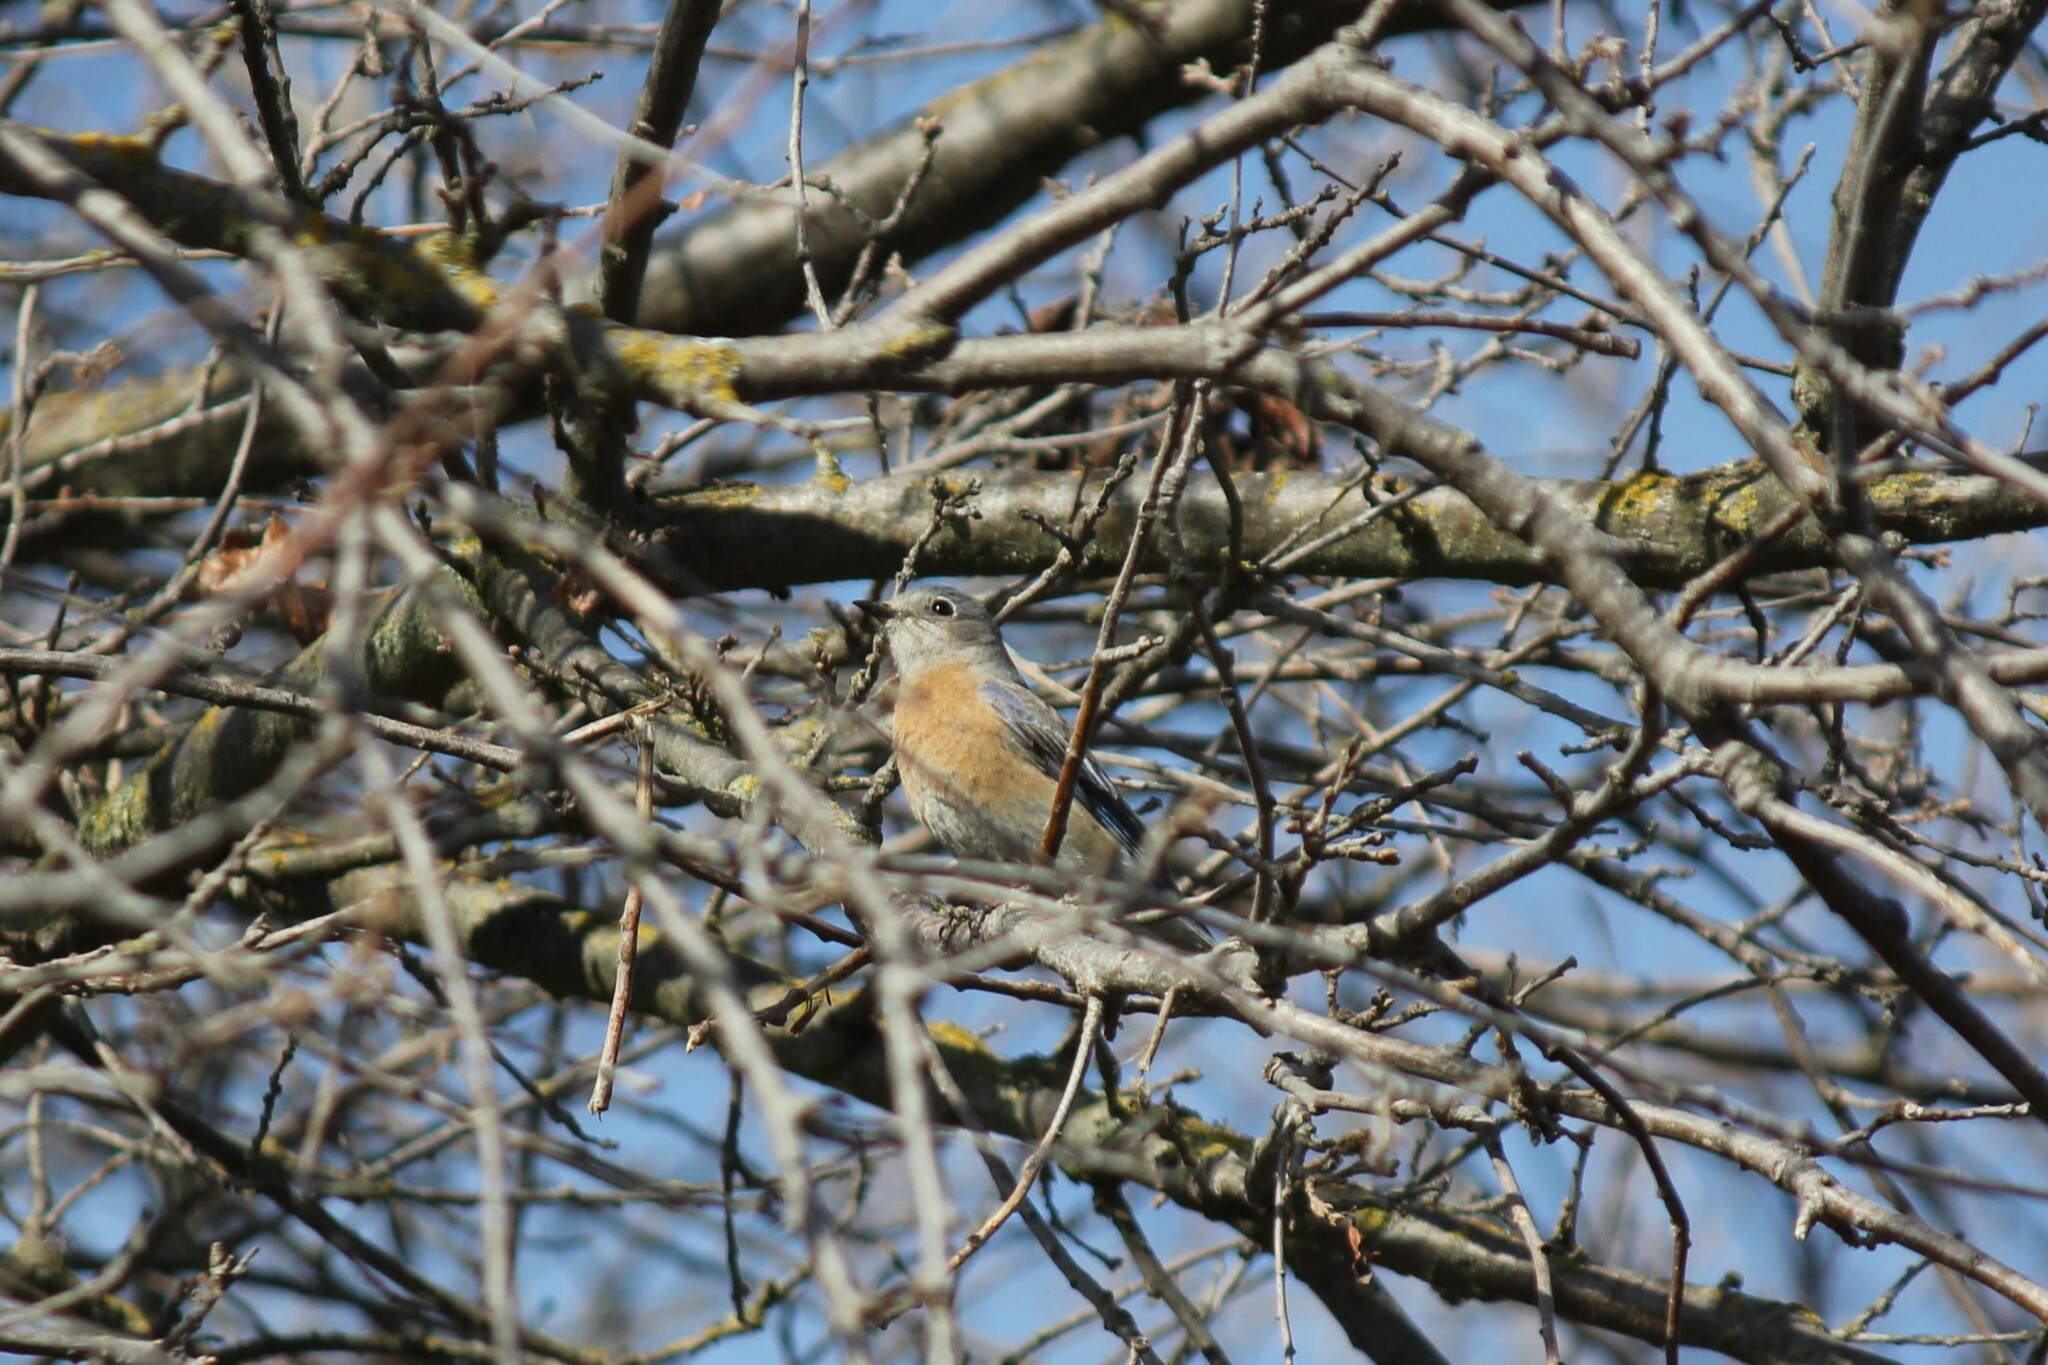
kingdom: Animalia
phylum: Chordata
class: Aves
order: Passeriformes
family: Turdidae
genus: Sialia
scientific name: Sialia mexicana
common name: Western bluebird
